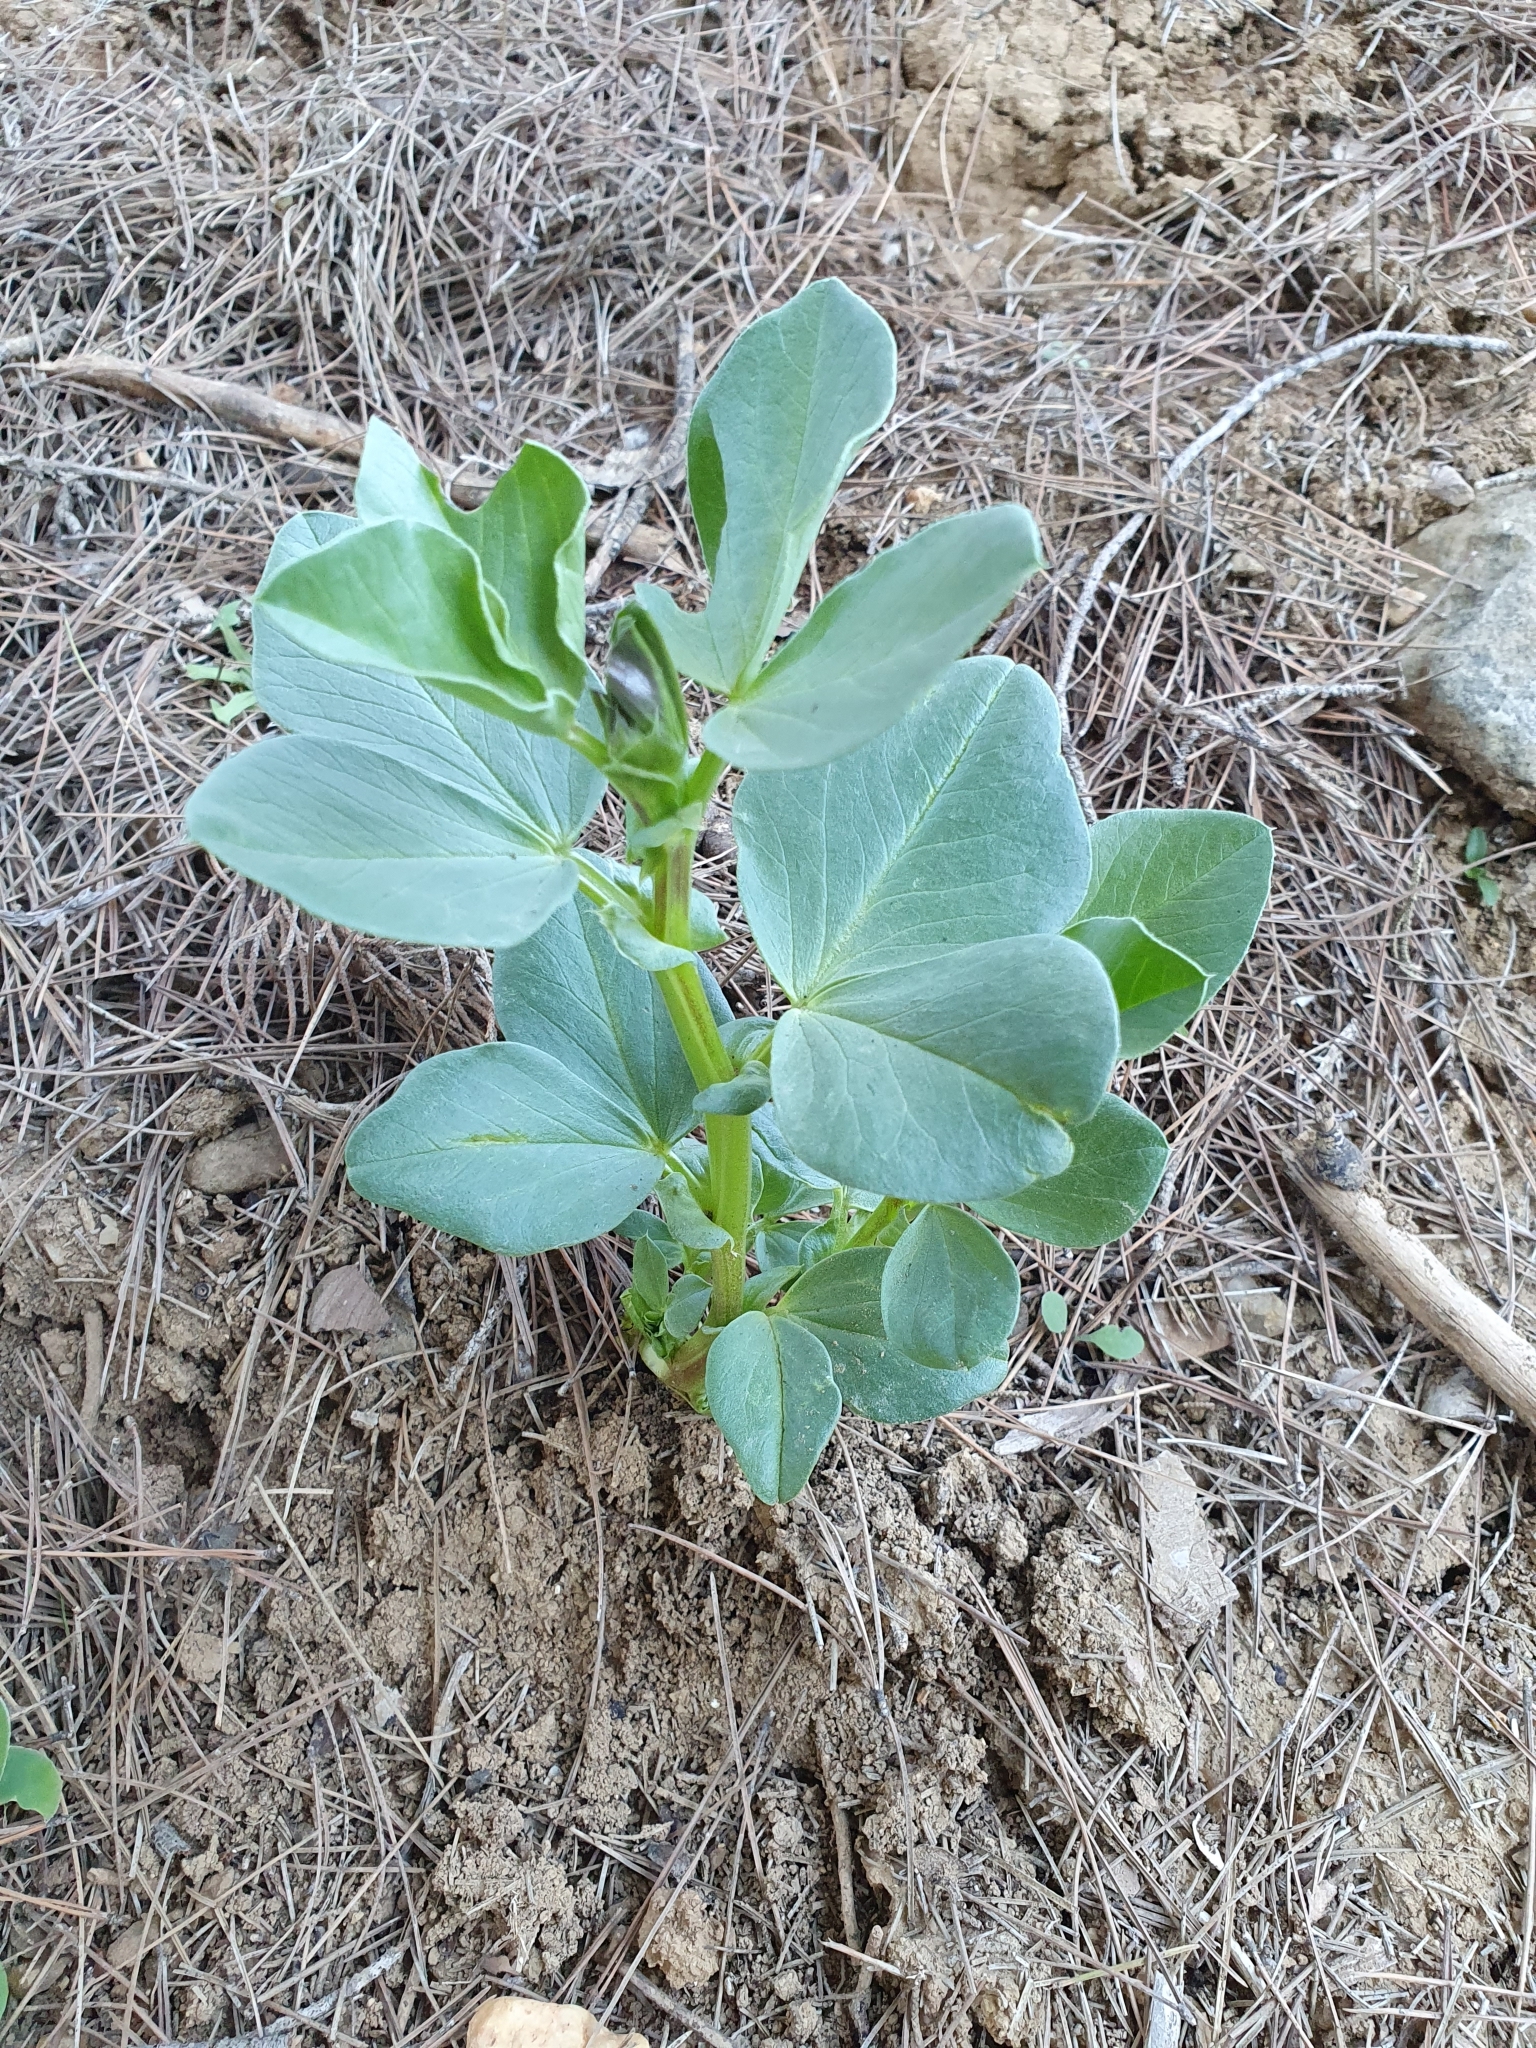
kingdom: Plantae
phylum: Tracheophyta
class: Magnoliopsida
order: Fabales
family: Fabaceae
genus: Vicia
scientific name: Vicia faba
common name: Broad bean
